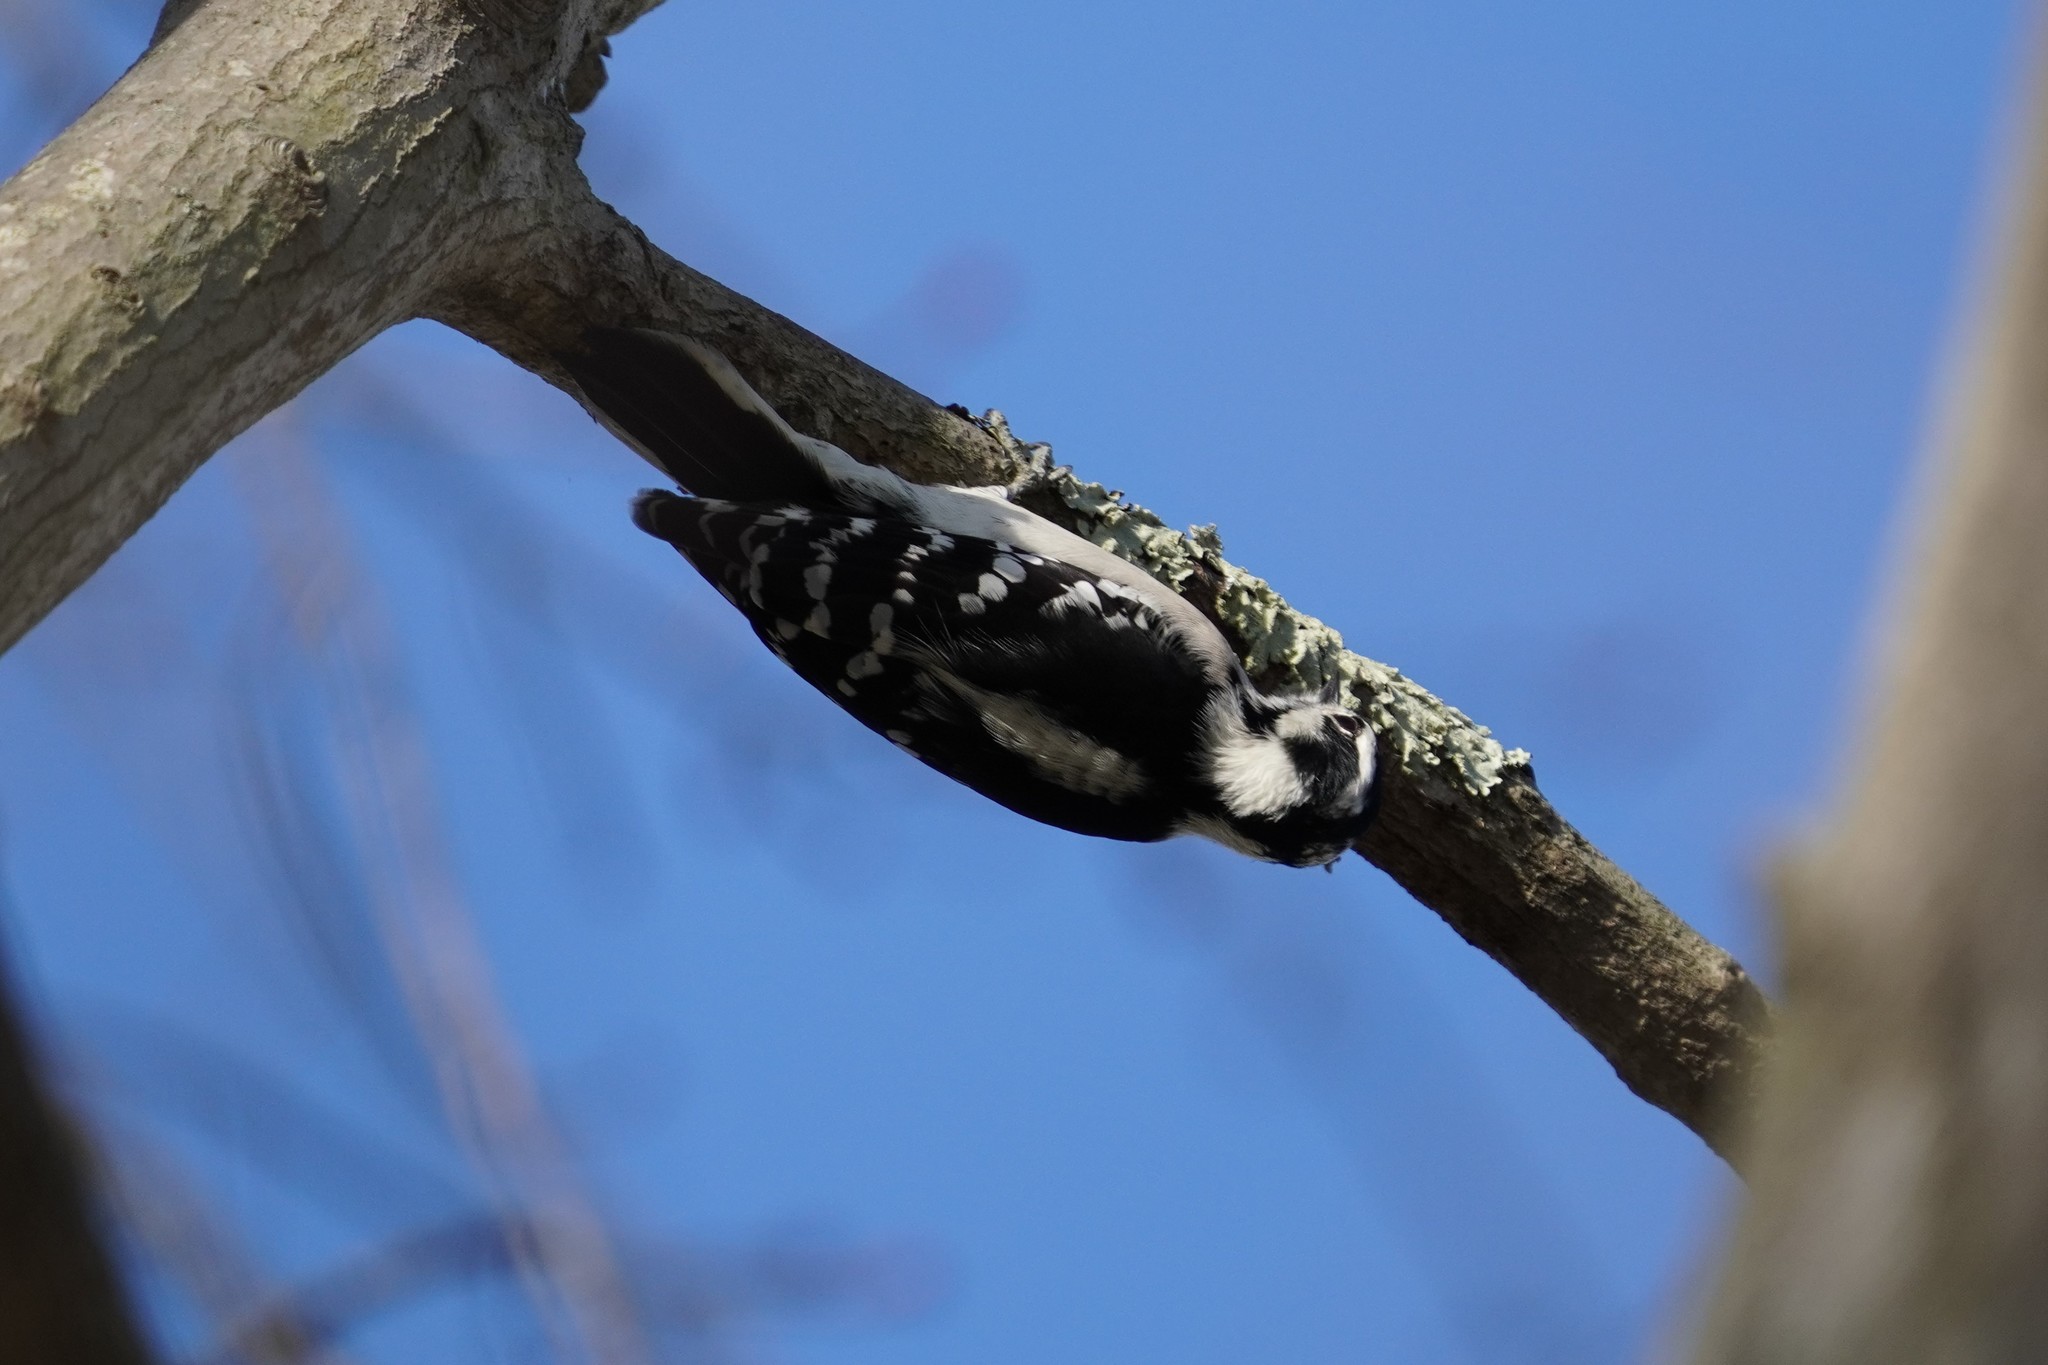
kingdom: Animalia
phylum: Chordata
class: Aves
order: Piciformes
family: Picidae
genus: Dryobates
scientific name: Dryobates pubescens
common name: Downy woodpecker
